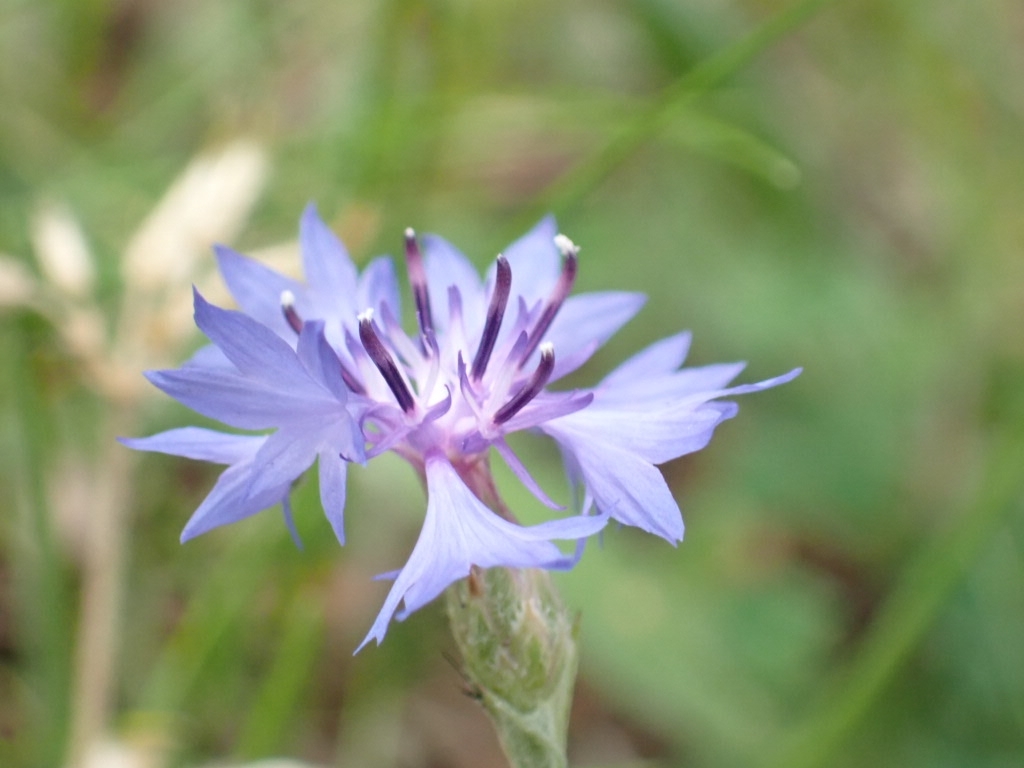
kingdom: Plantae
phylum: Tracheophyta
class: Magnoliopsida
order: Asterales
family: Asteraceae
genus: Centaurea
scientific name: Centaurea cyanus
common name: Cornflower
